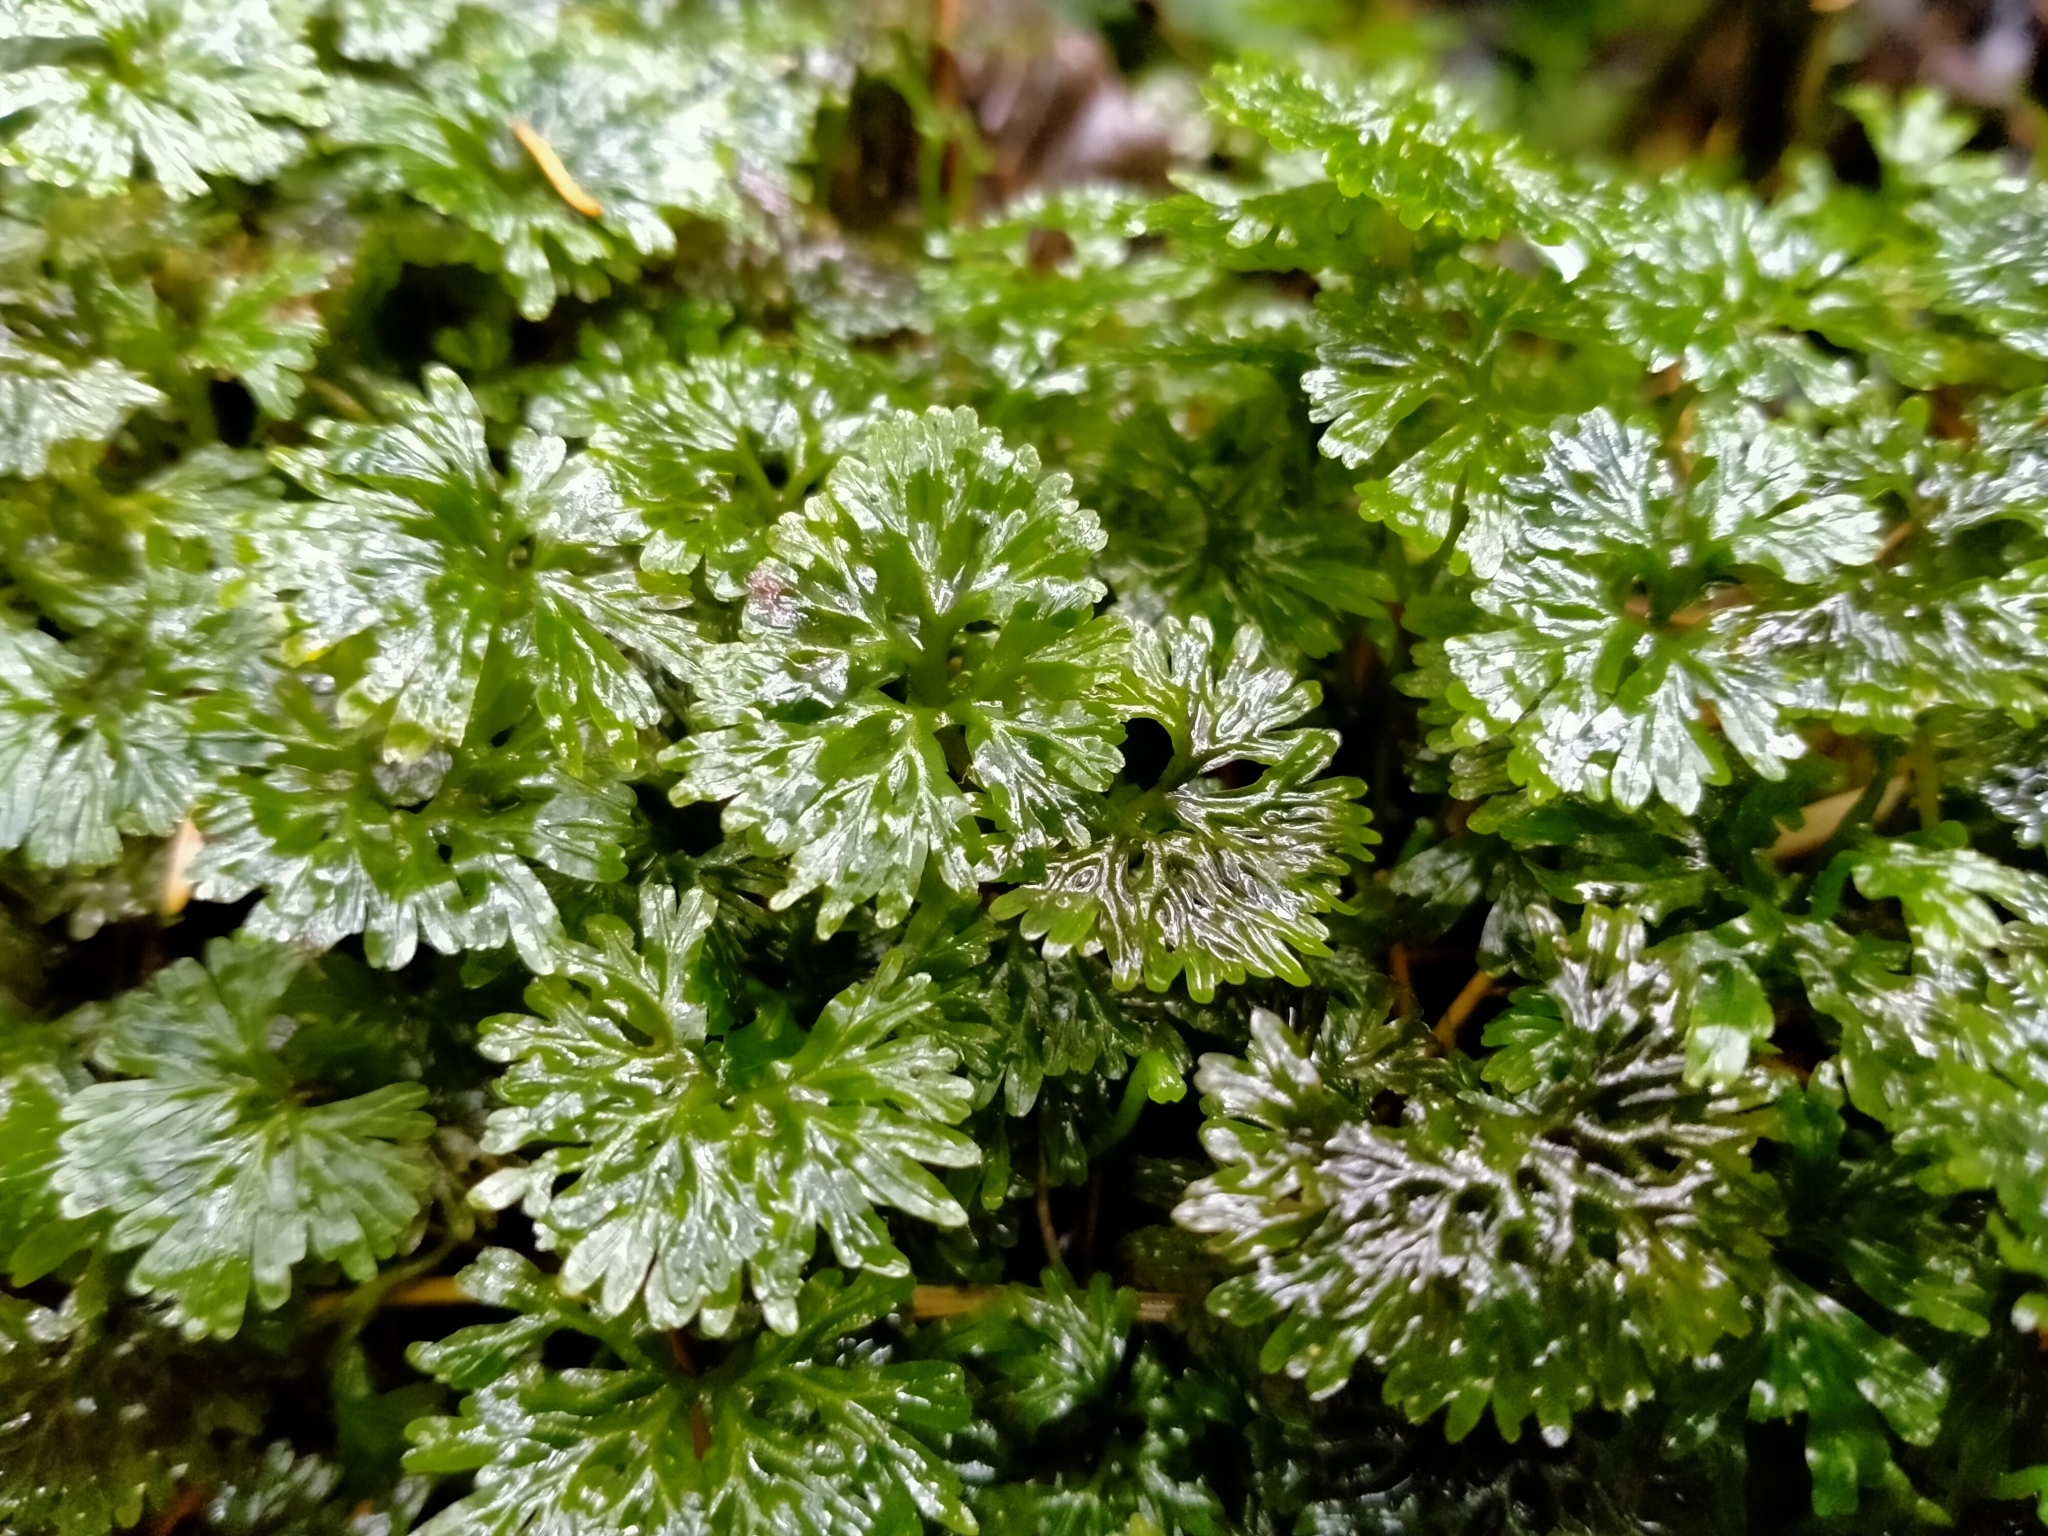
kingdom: Plantae
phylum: Marchantiophyta
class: Jungermanniopsida
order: Pallaviciniales
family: Hymenophytaceae
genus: Hymenophyton
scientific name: Hymenophyton flabellatum
